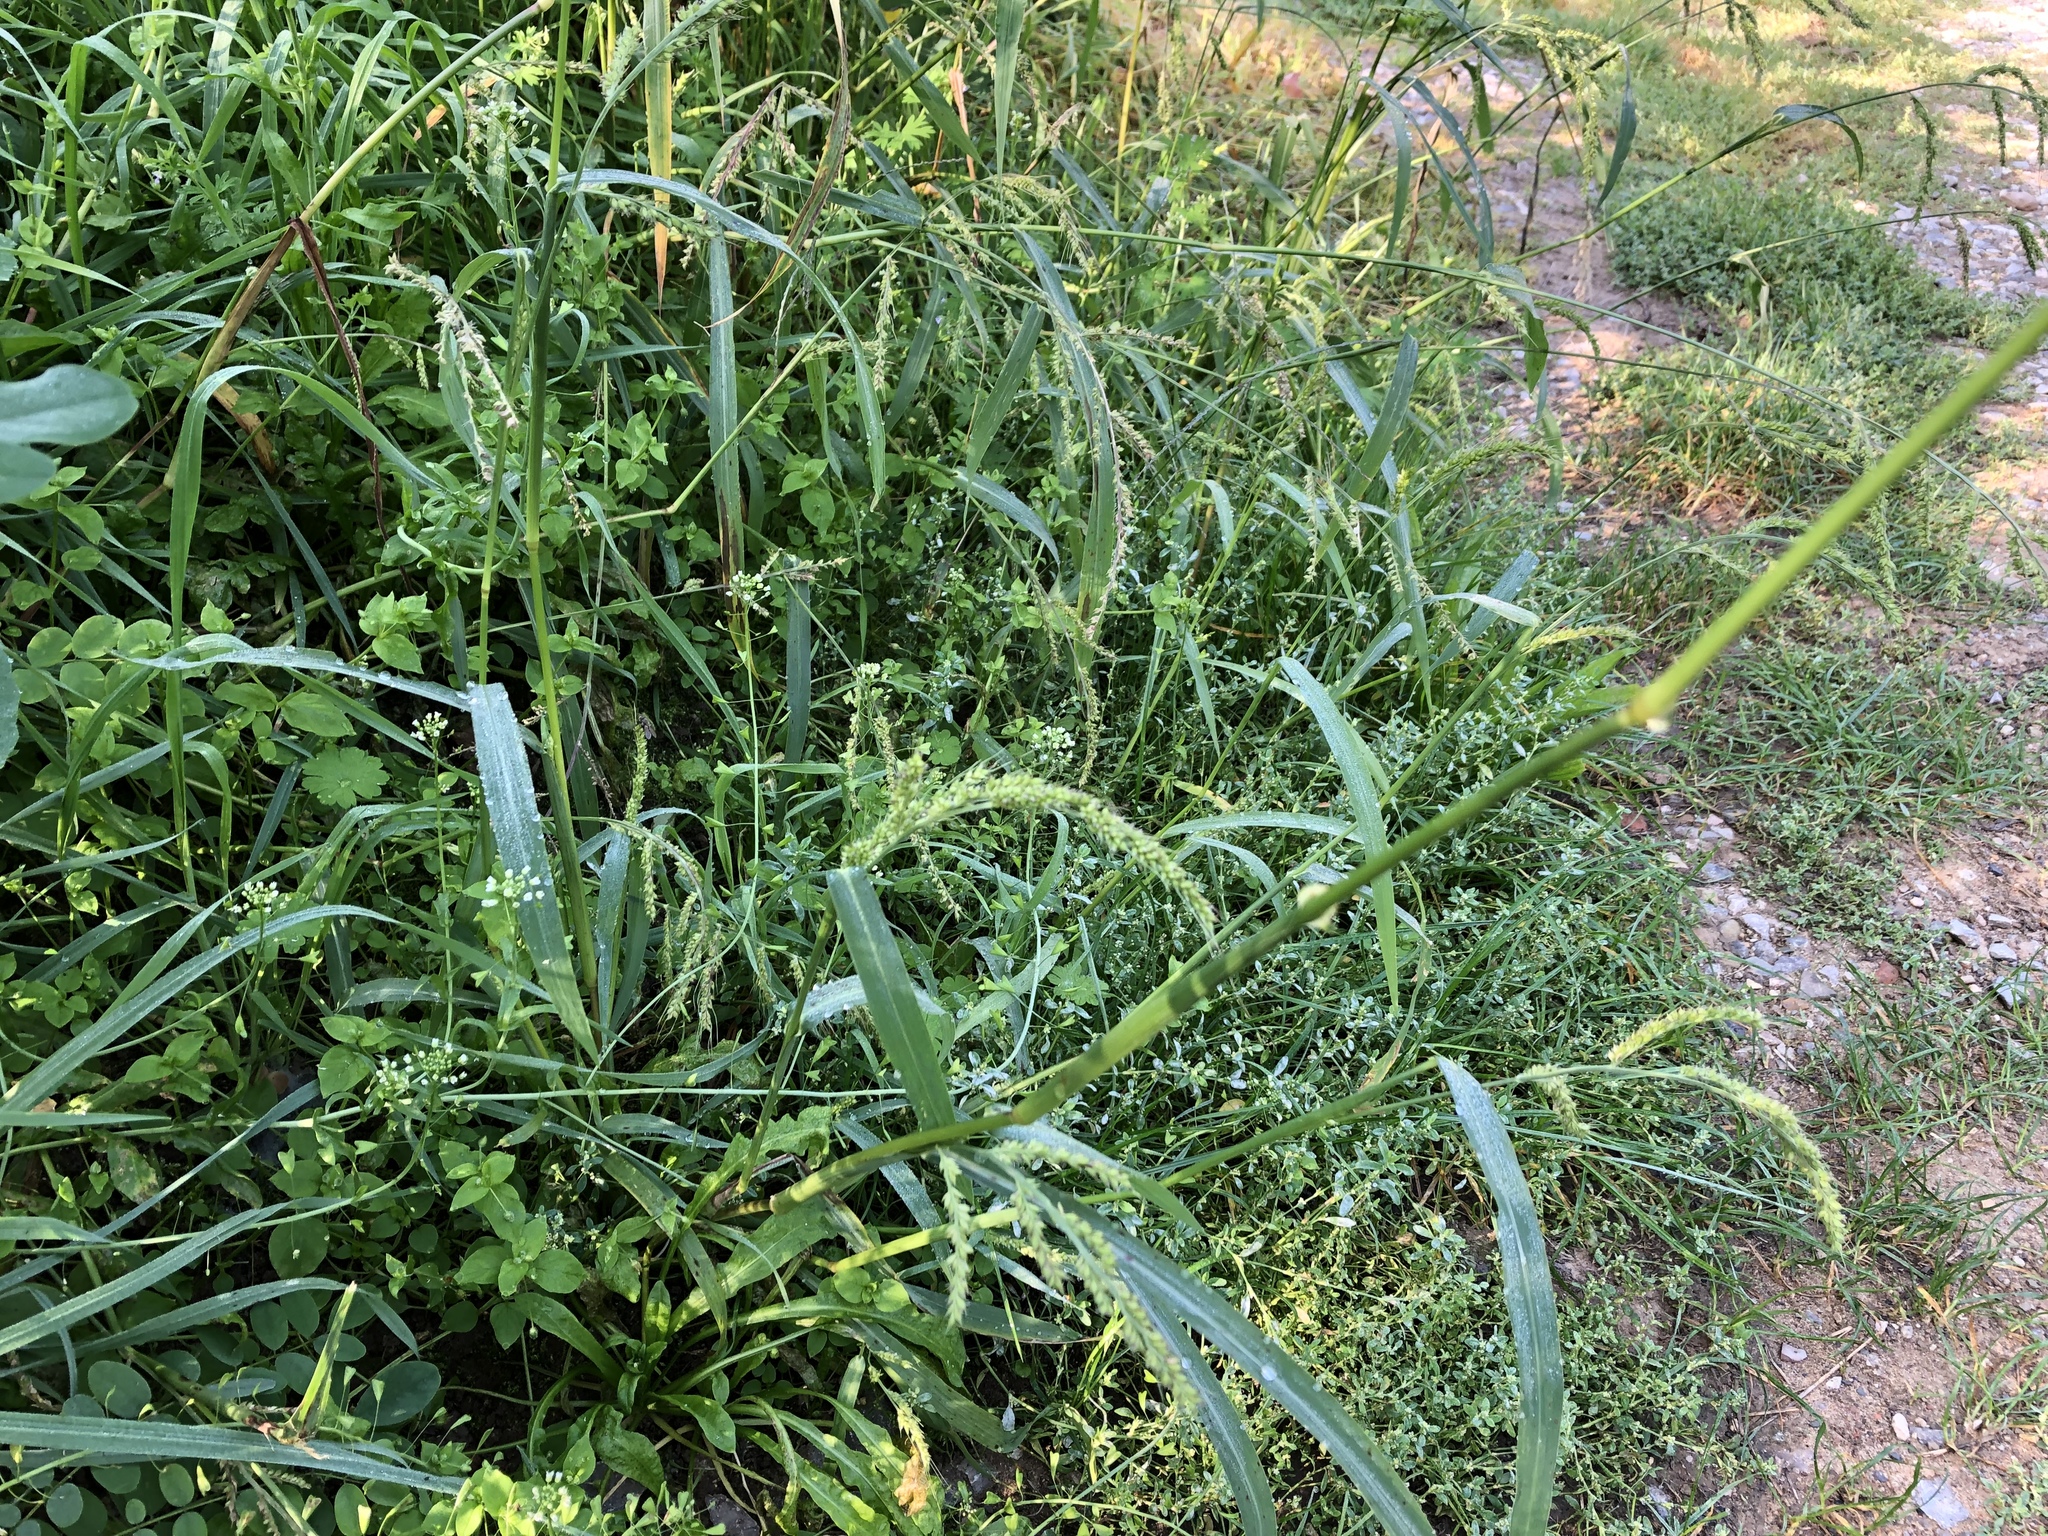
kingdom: Plantae
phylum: Tracheophyta
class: Liliopsida
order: Poales
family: Poaceae
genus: Echinochloa
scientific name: Echinochloa crus-galli
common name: Cockspur
